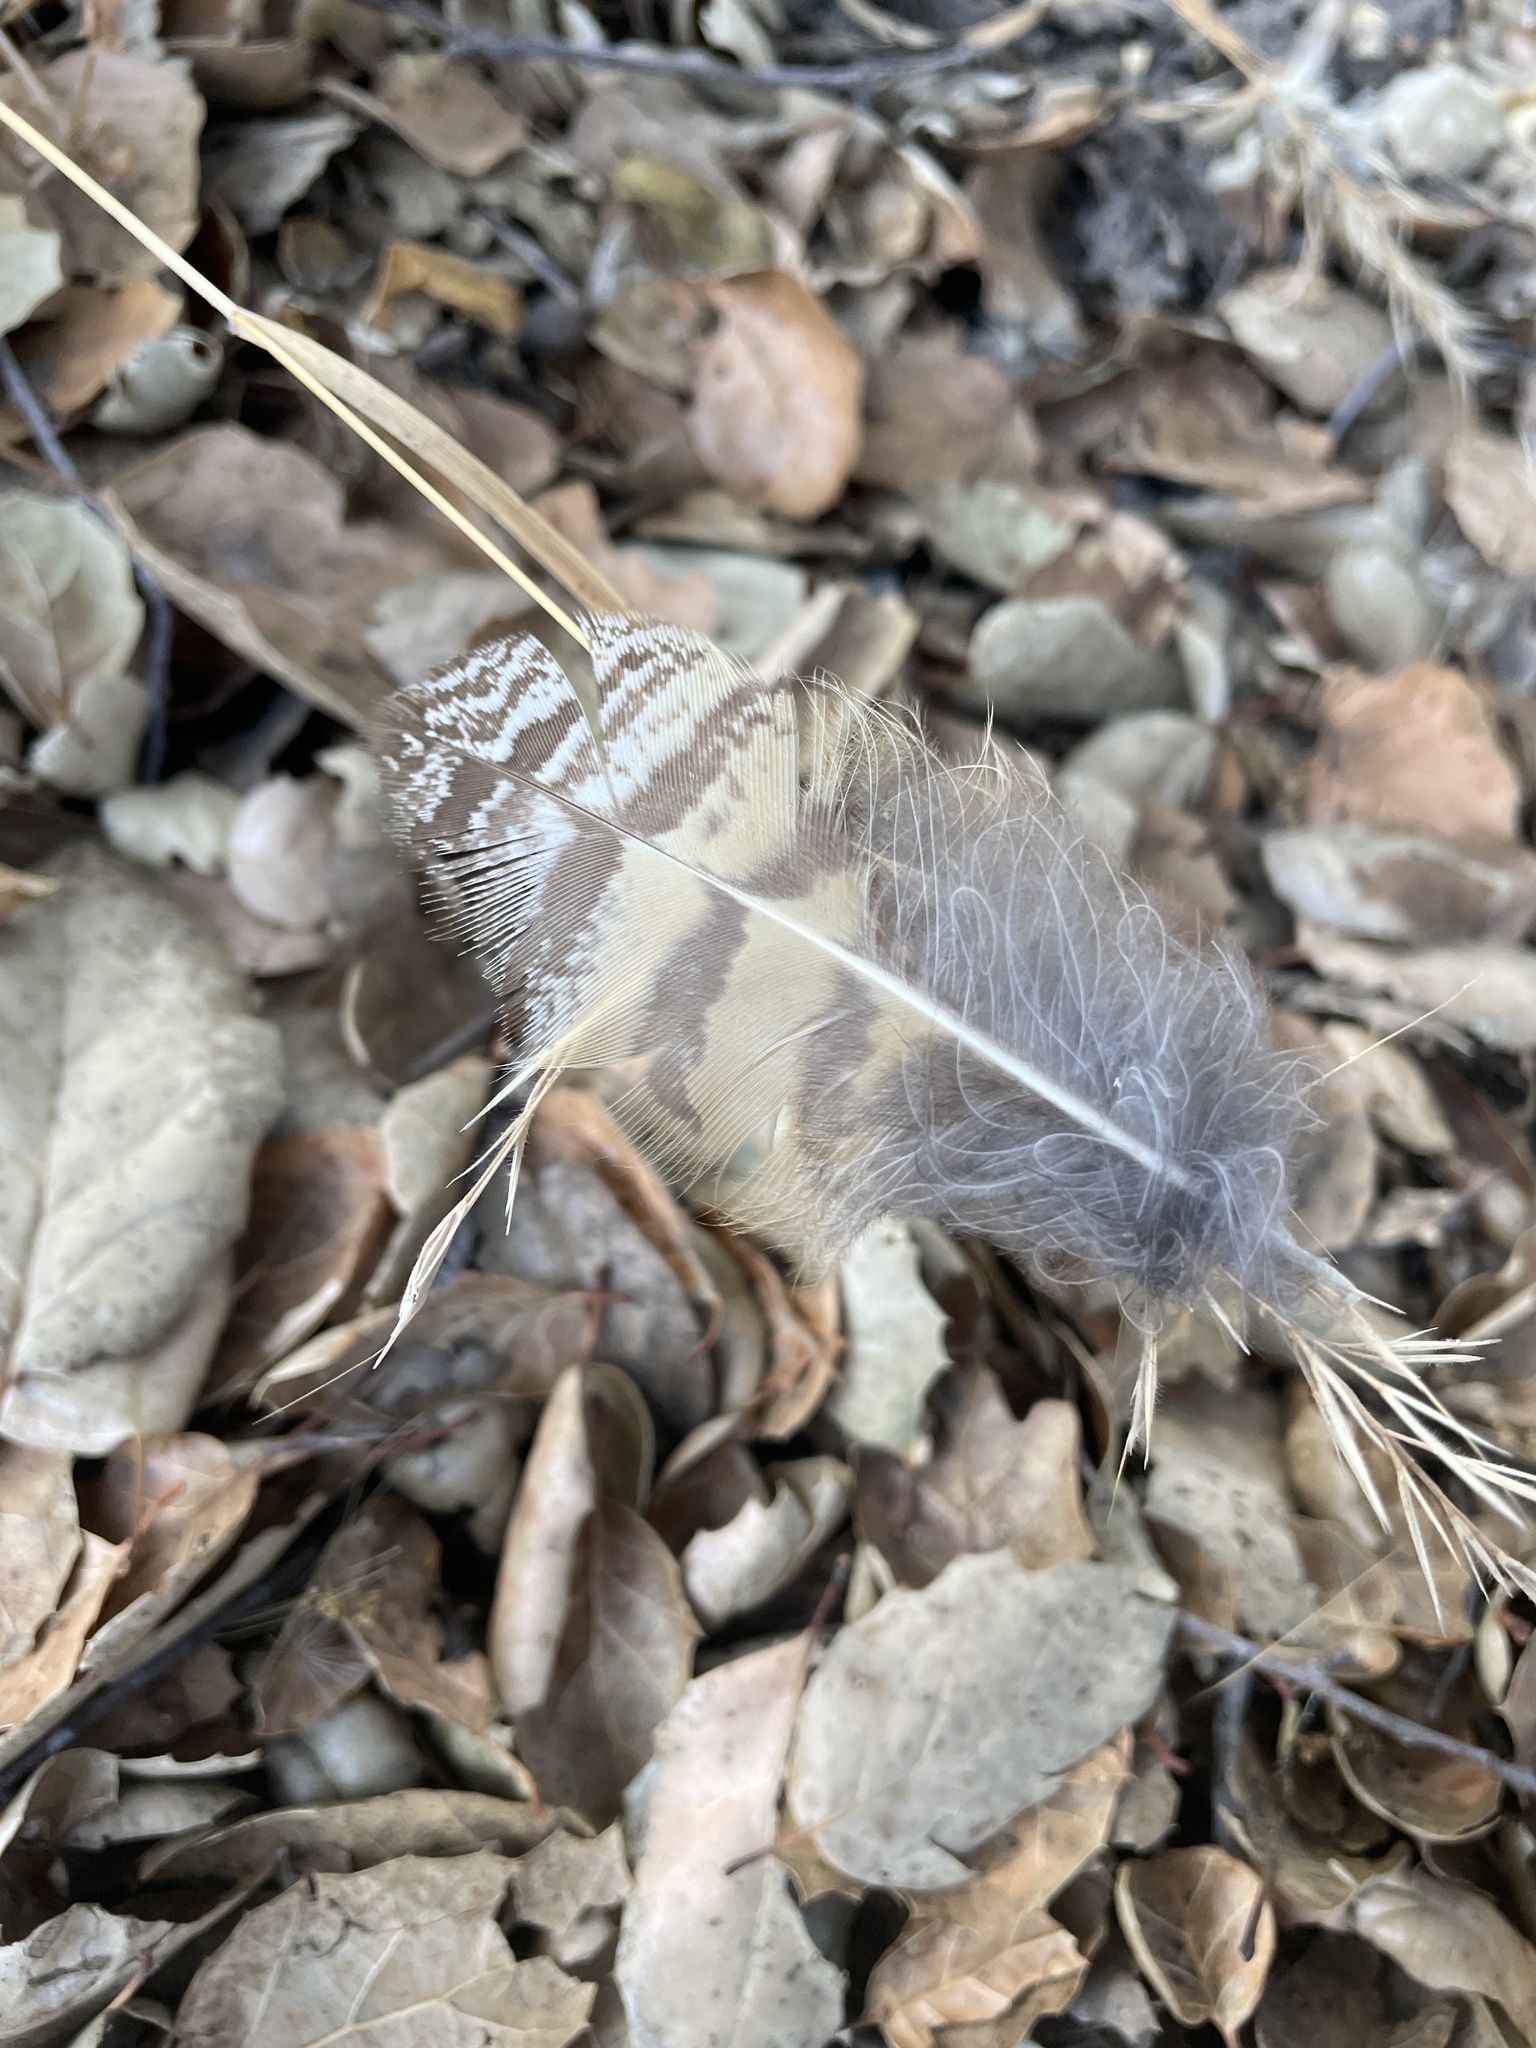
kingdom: Animalia
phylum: Chordata
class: Aves
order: Strigiformes
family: Strigidae
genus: Bubo
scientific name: Bubo virginianus
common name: Great horned owl
